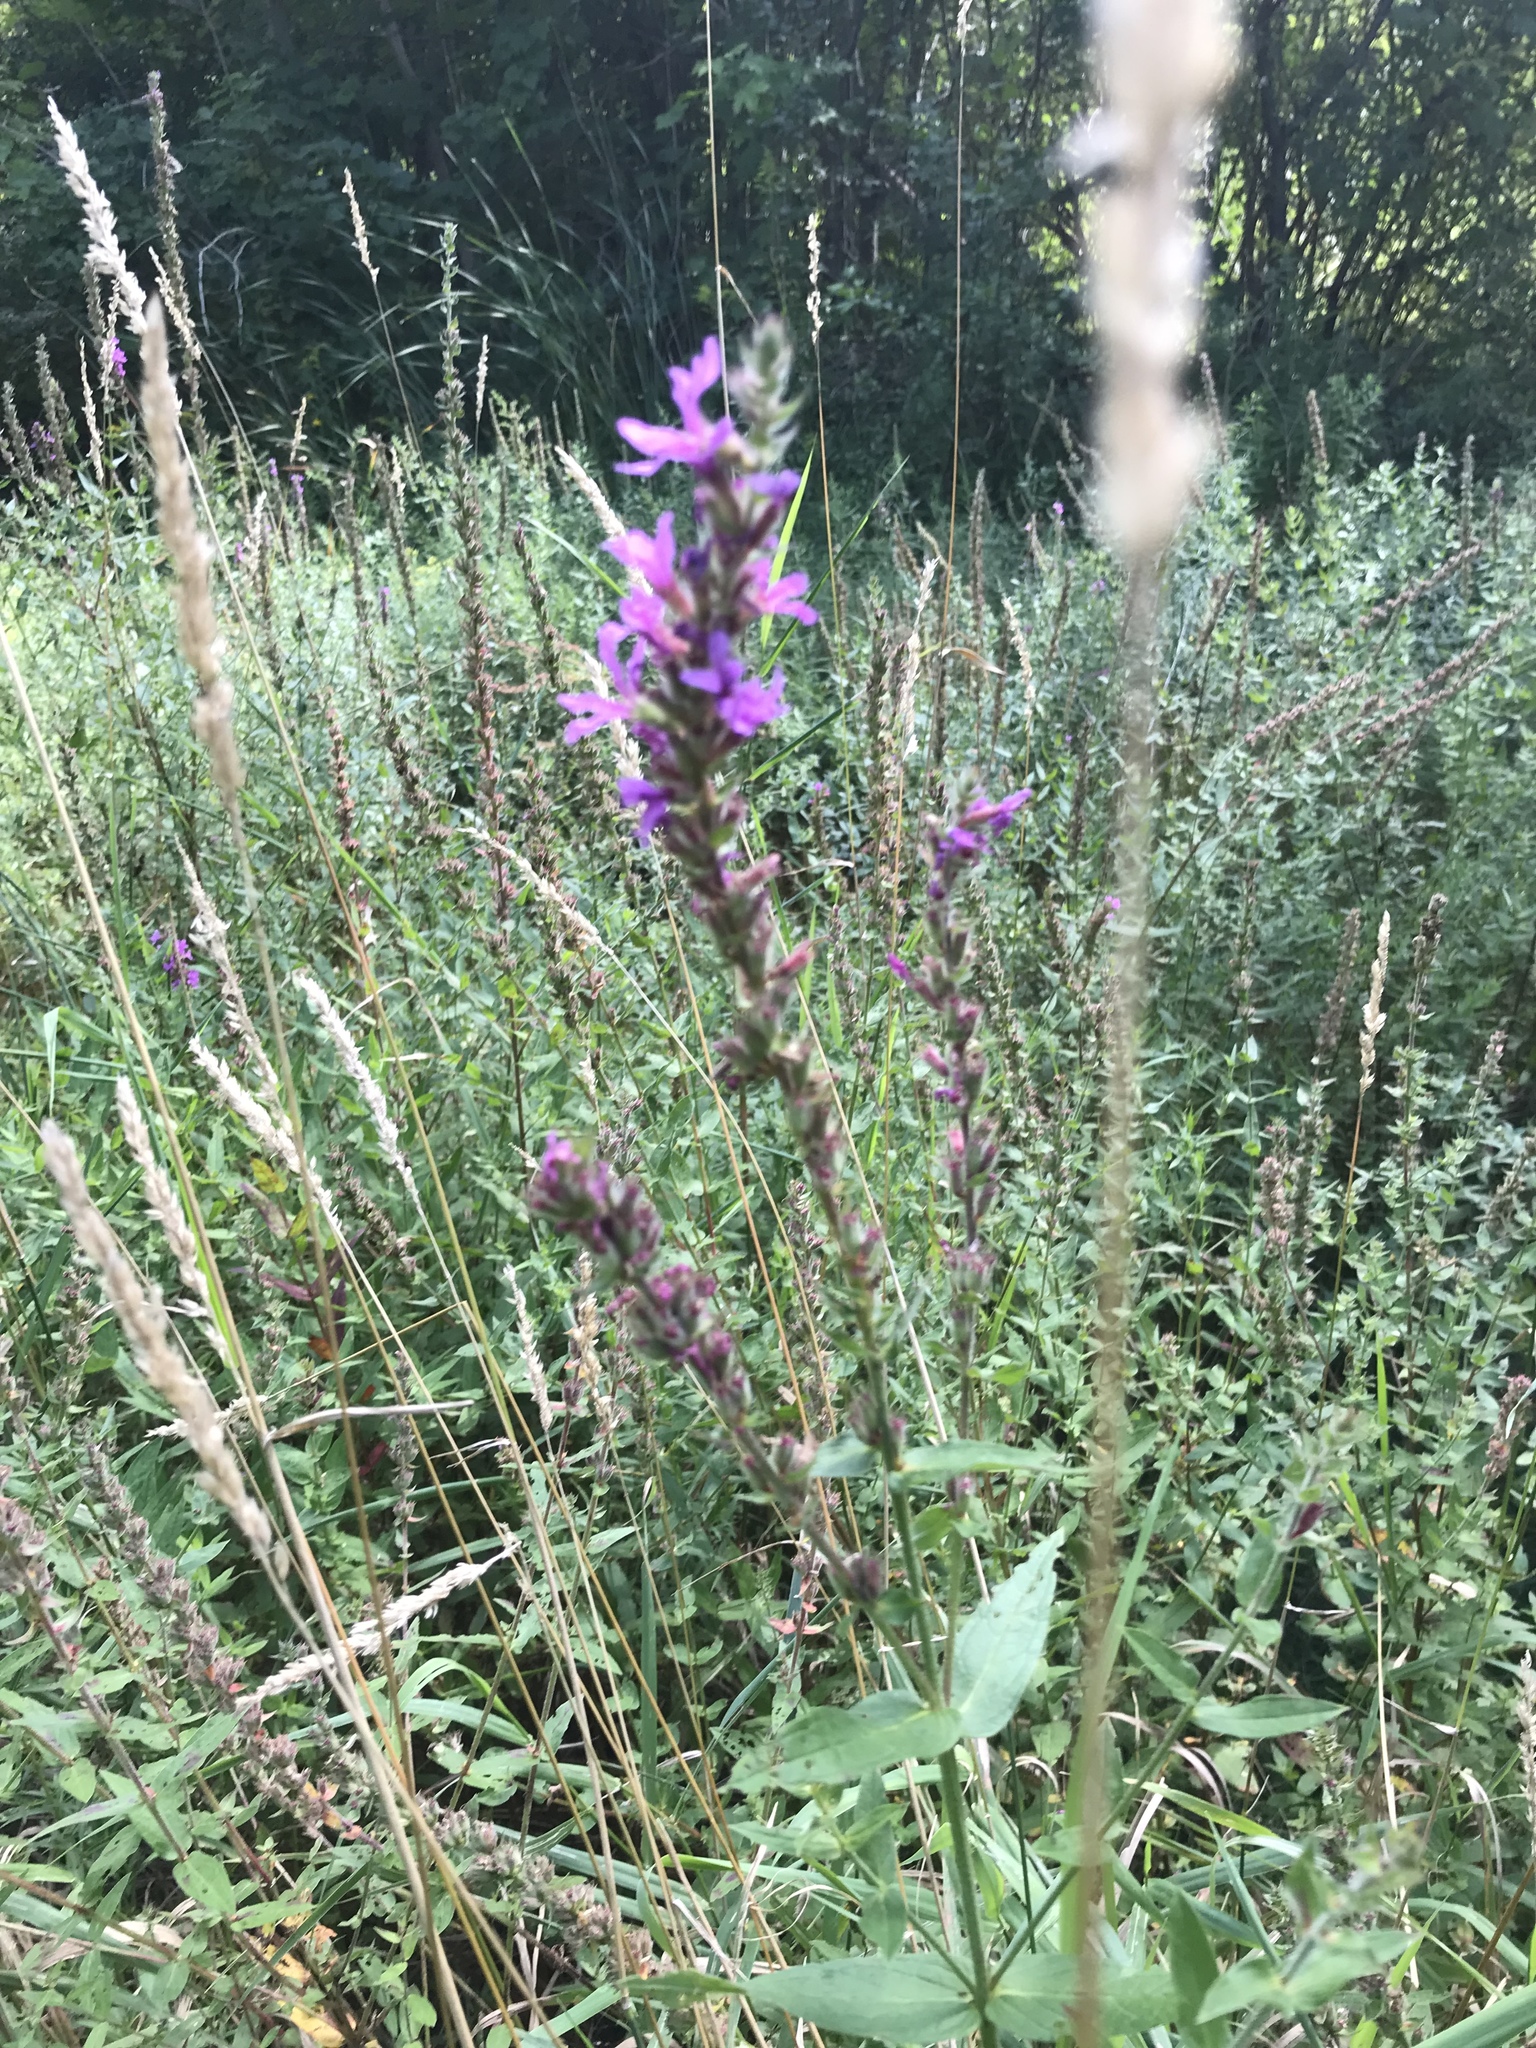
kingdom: Plantae
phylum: Tracheophyta
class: Magnoliopsida
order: Myrtales
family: Lythraceae
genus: Lythrum
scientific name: Lythrum salicaria
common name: Purple loosestrife
